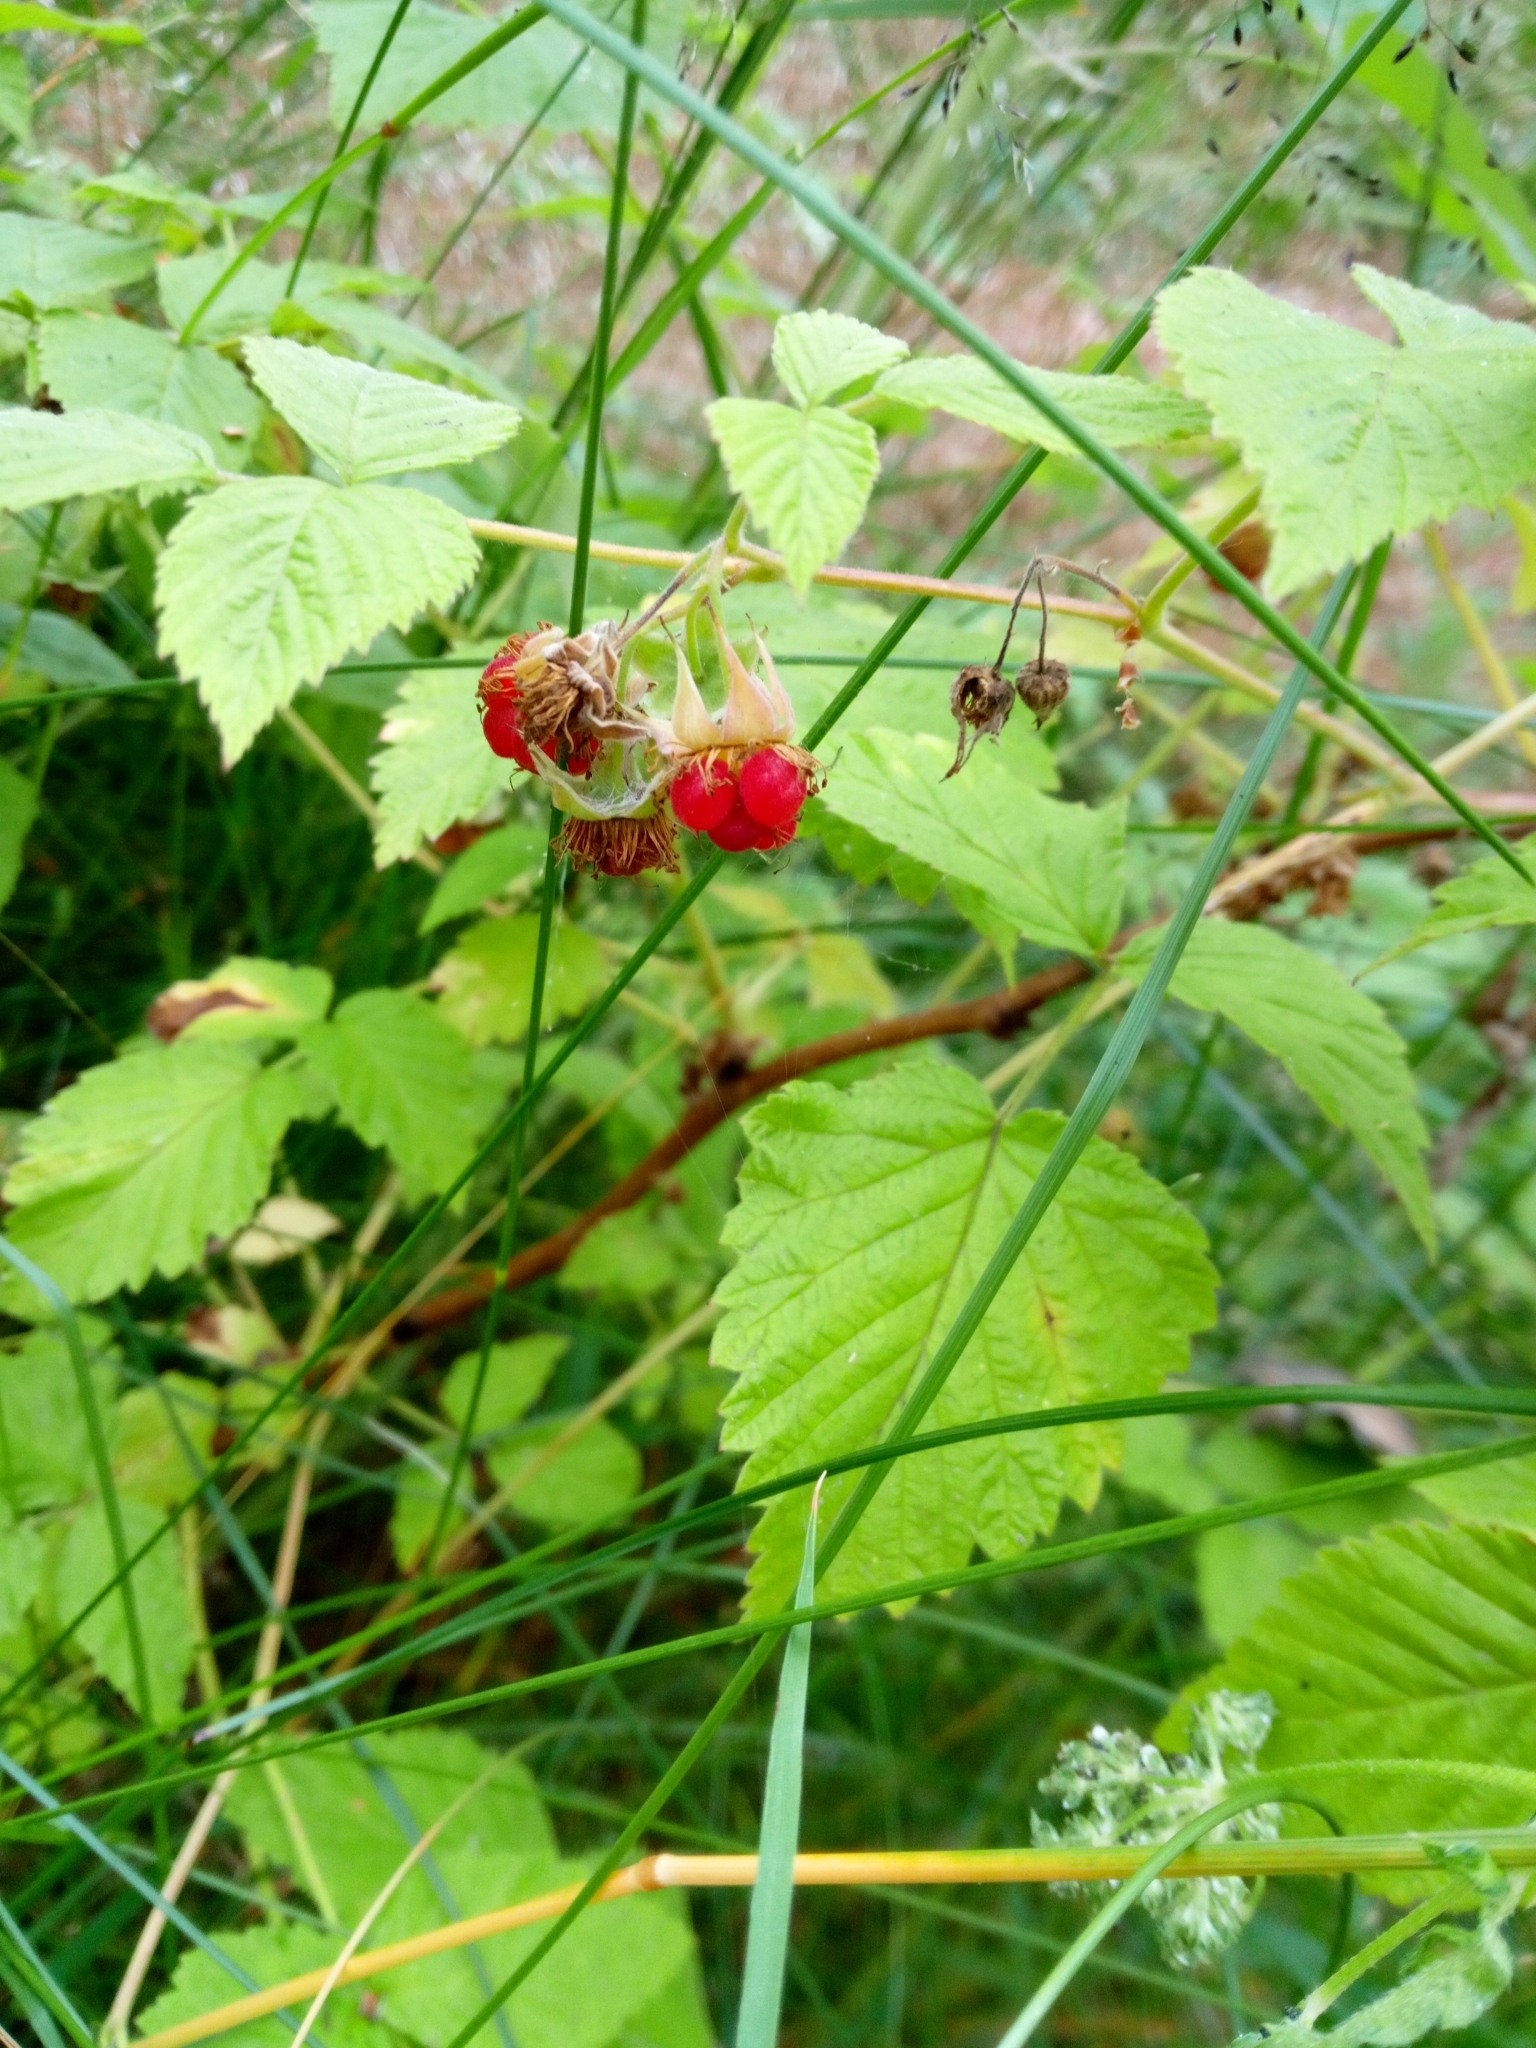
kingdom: Plantae
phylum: Tracheophyta
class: Magnoliopsida
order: Rosales
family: Rosaceae
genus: Rubus
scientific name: Rubus idaeus
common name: Raspberry
